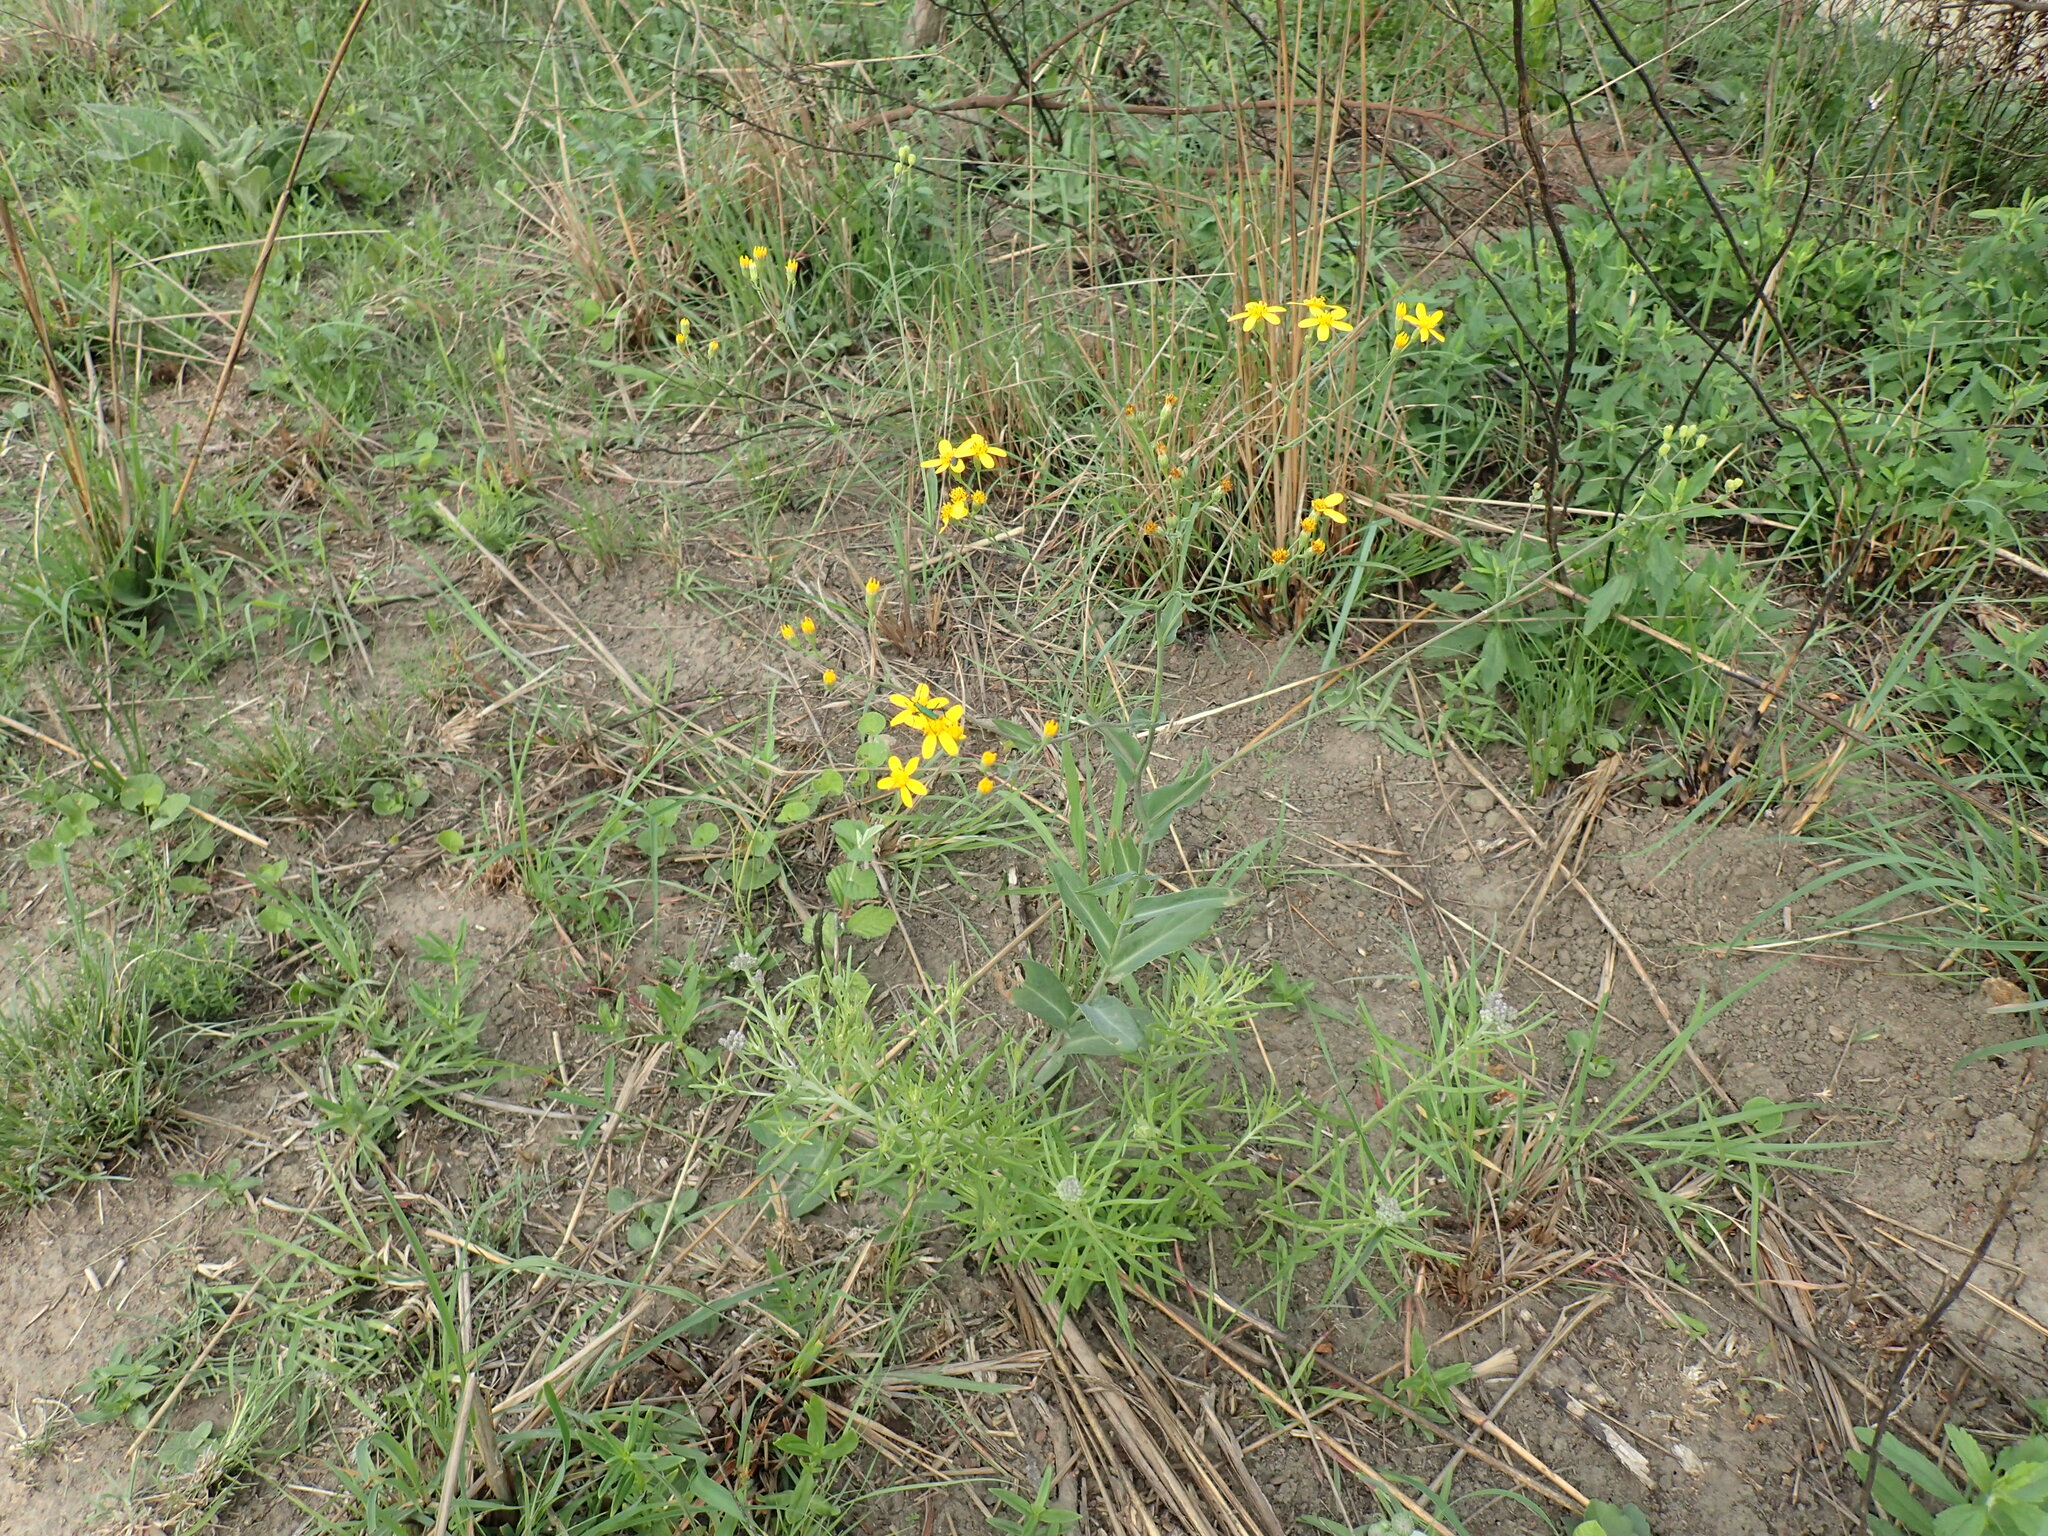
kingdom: Plantae
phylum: Tracheophyta
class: Magnoliopsida
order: Asterales
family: Asteraceae
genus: Senecio
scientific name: Senecio bupleuroides
